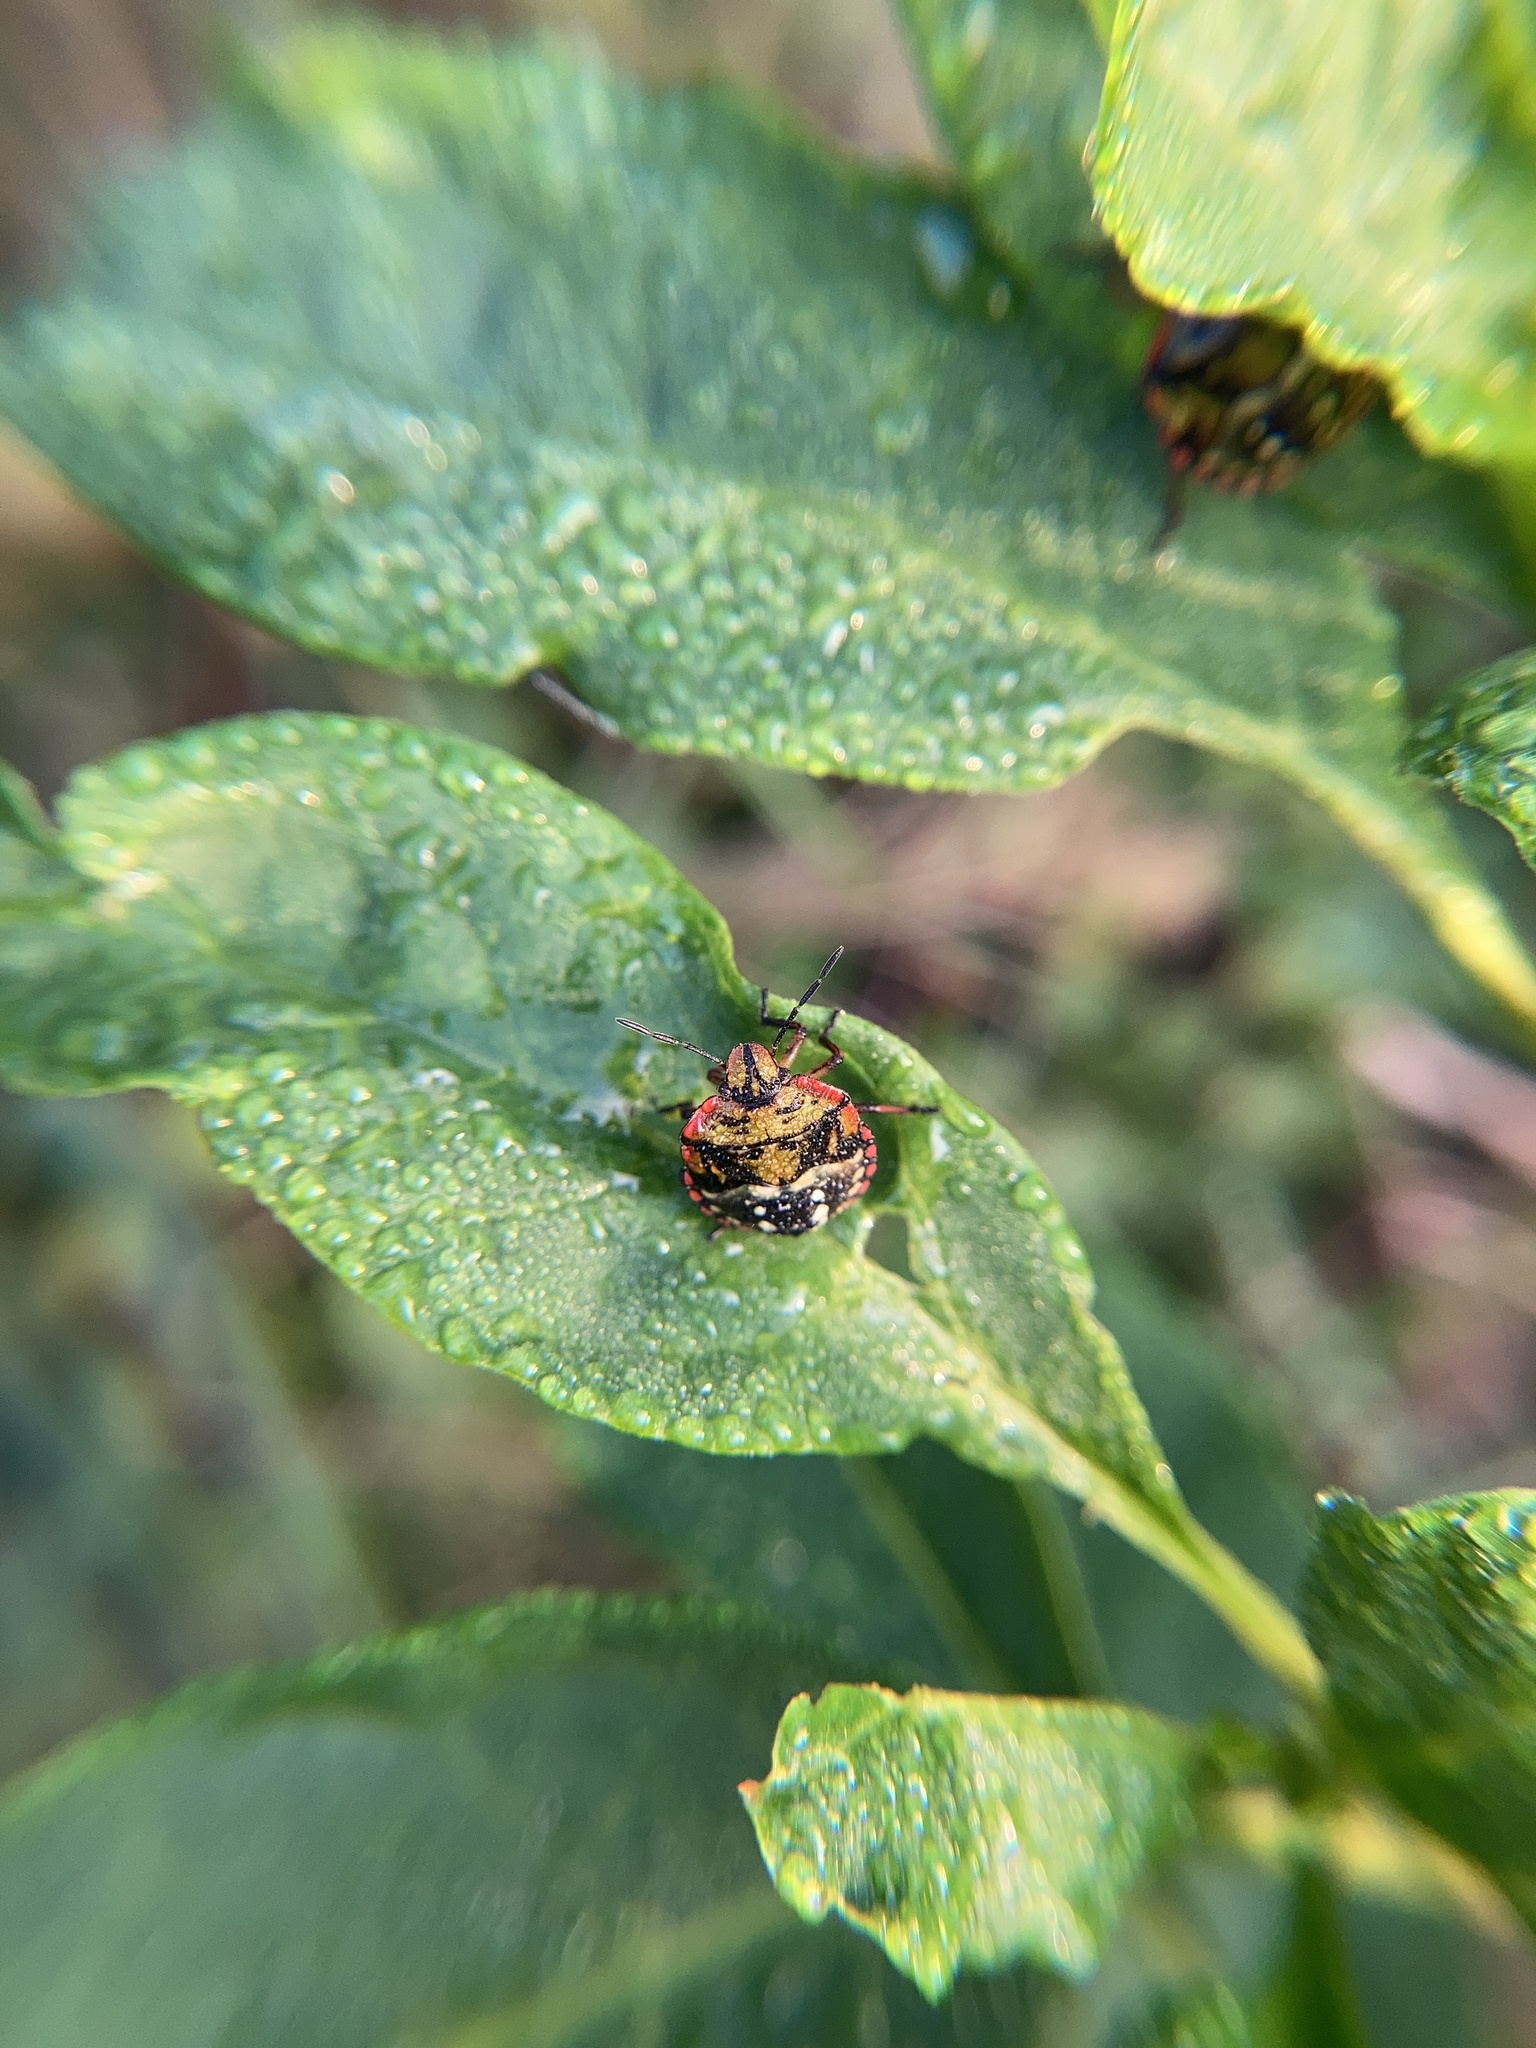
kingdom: Animalia
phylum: Arthropoda
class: Insecta
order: Hemiptera
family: Pentatomidae
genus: Nezara
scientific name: Nezara viridula
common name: Southern green stink bug
